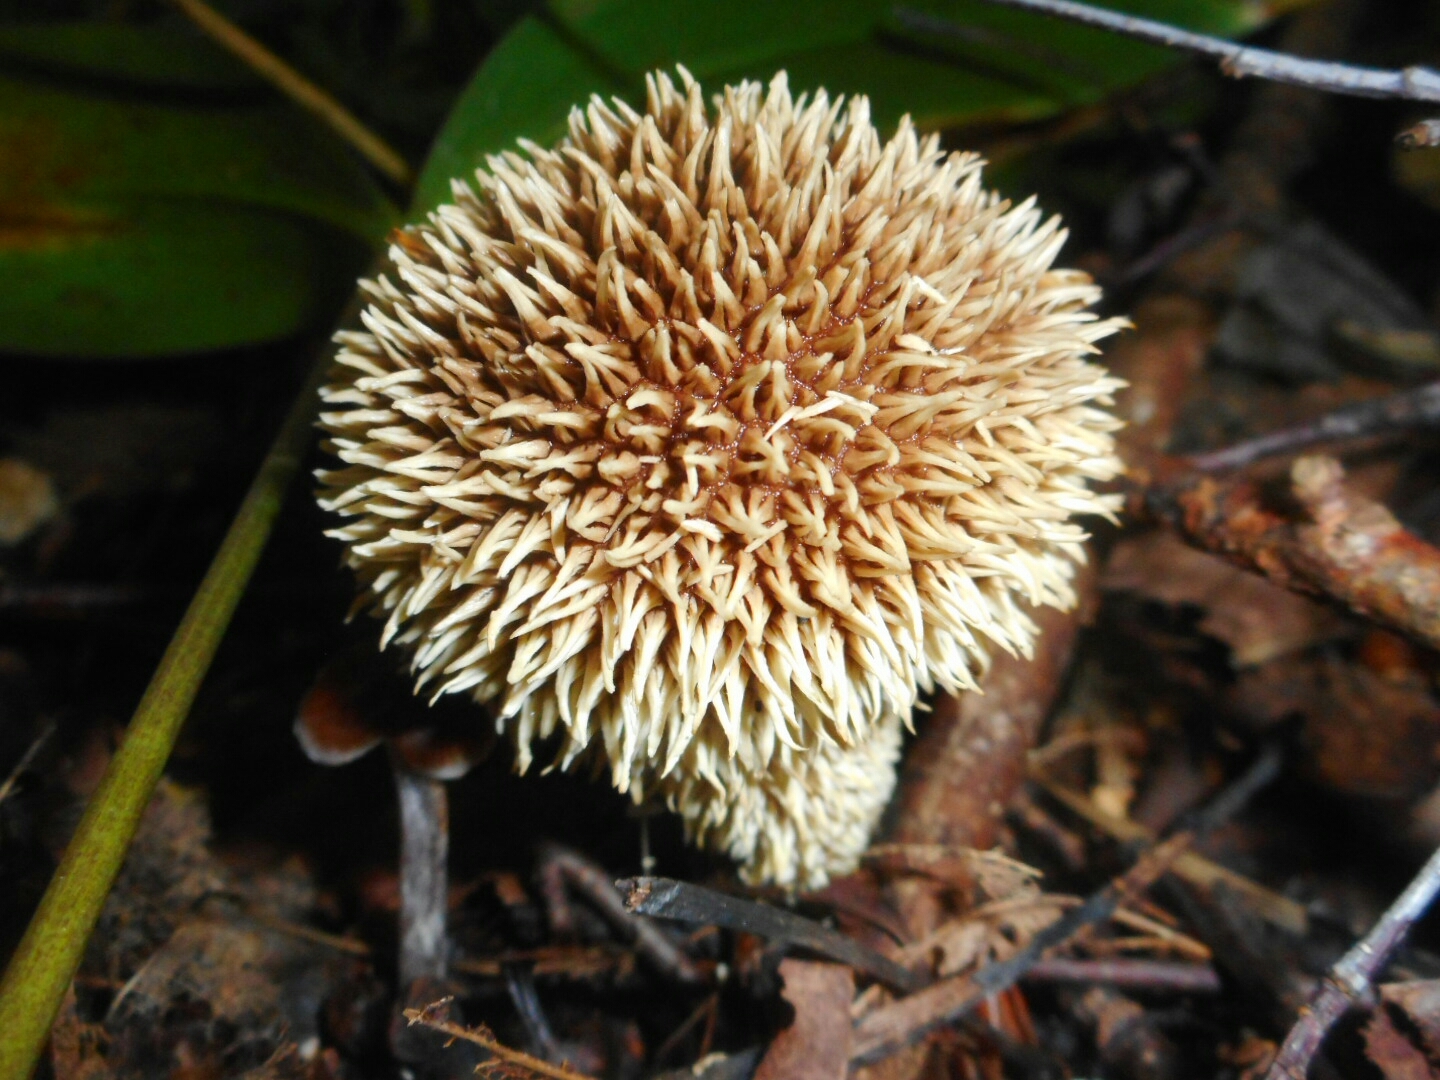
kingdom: Fungi
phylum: Basidiomycota
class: Agaricomycetes
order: Agaricales
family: Lycoperdaceae
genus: Lycoperdon
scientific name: Lycoperdon echinatum
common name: Hedgehog puffball
